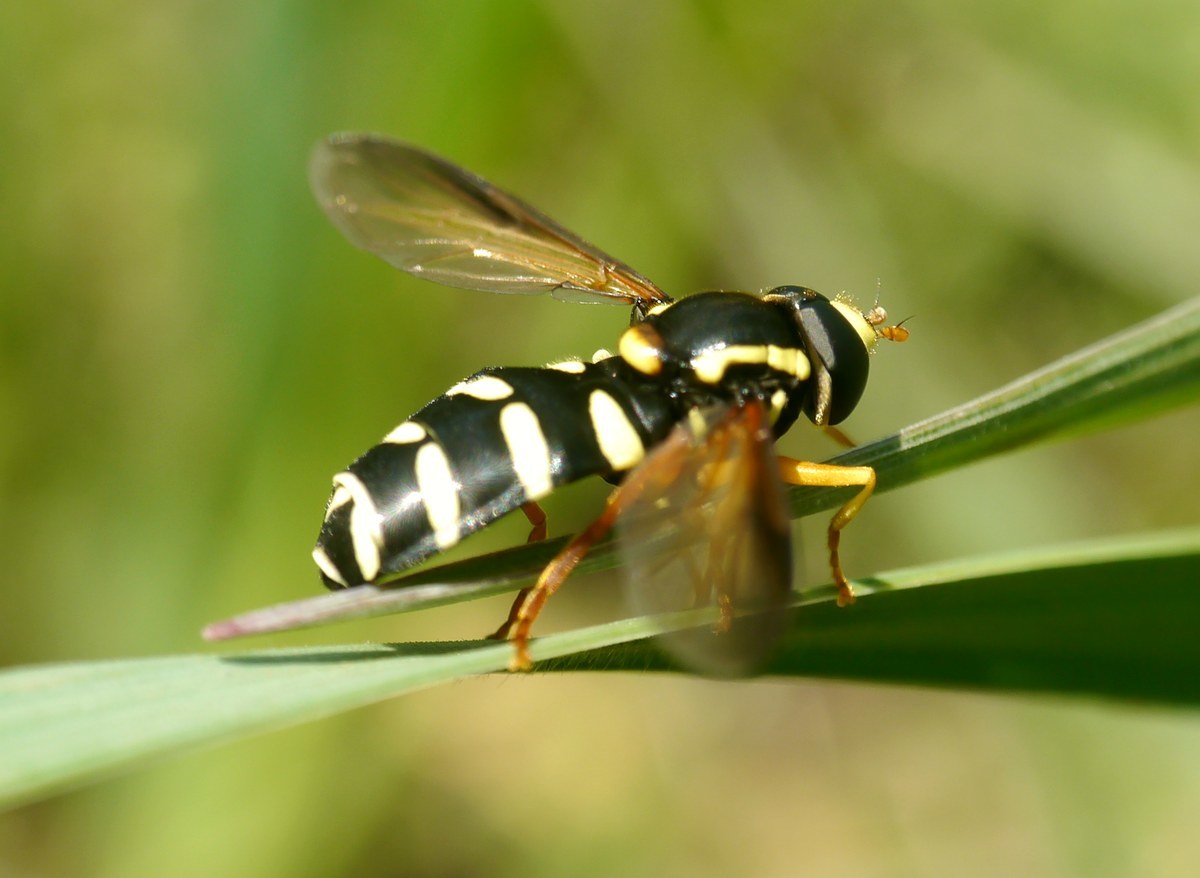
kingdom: Animalia
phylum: Arthropoda
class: Insecta
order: Diptera
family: Syrphidae
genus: Philhelius
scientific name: Philhelius citrofasciata
